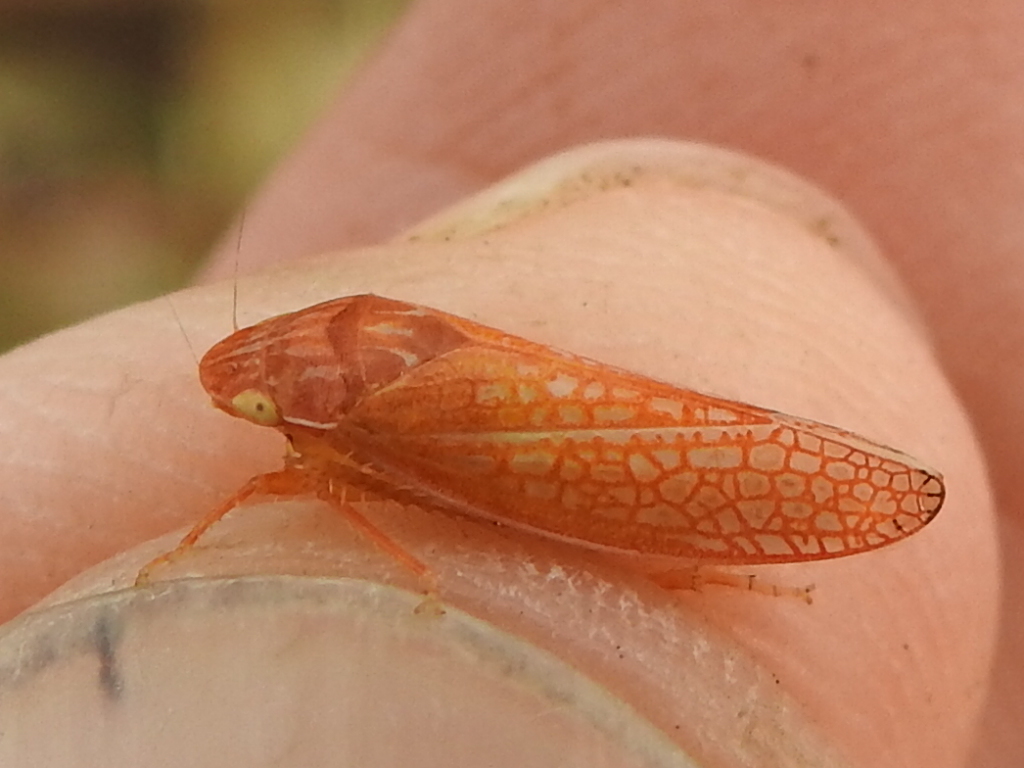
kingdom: Animalia
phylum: Arthropoda
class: Insecta
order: Hemiptera
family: Cicadellidae
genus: Gyponana
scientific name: Gyponana gladia
